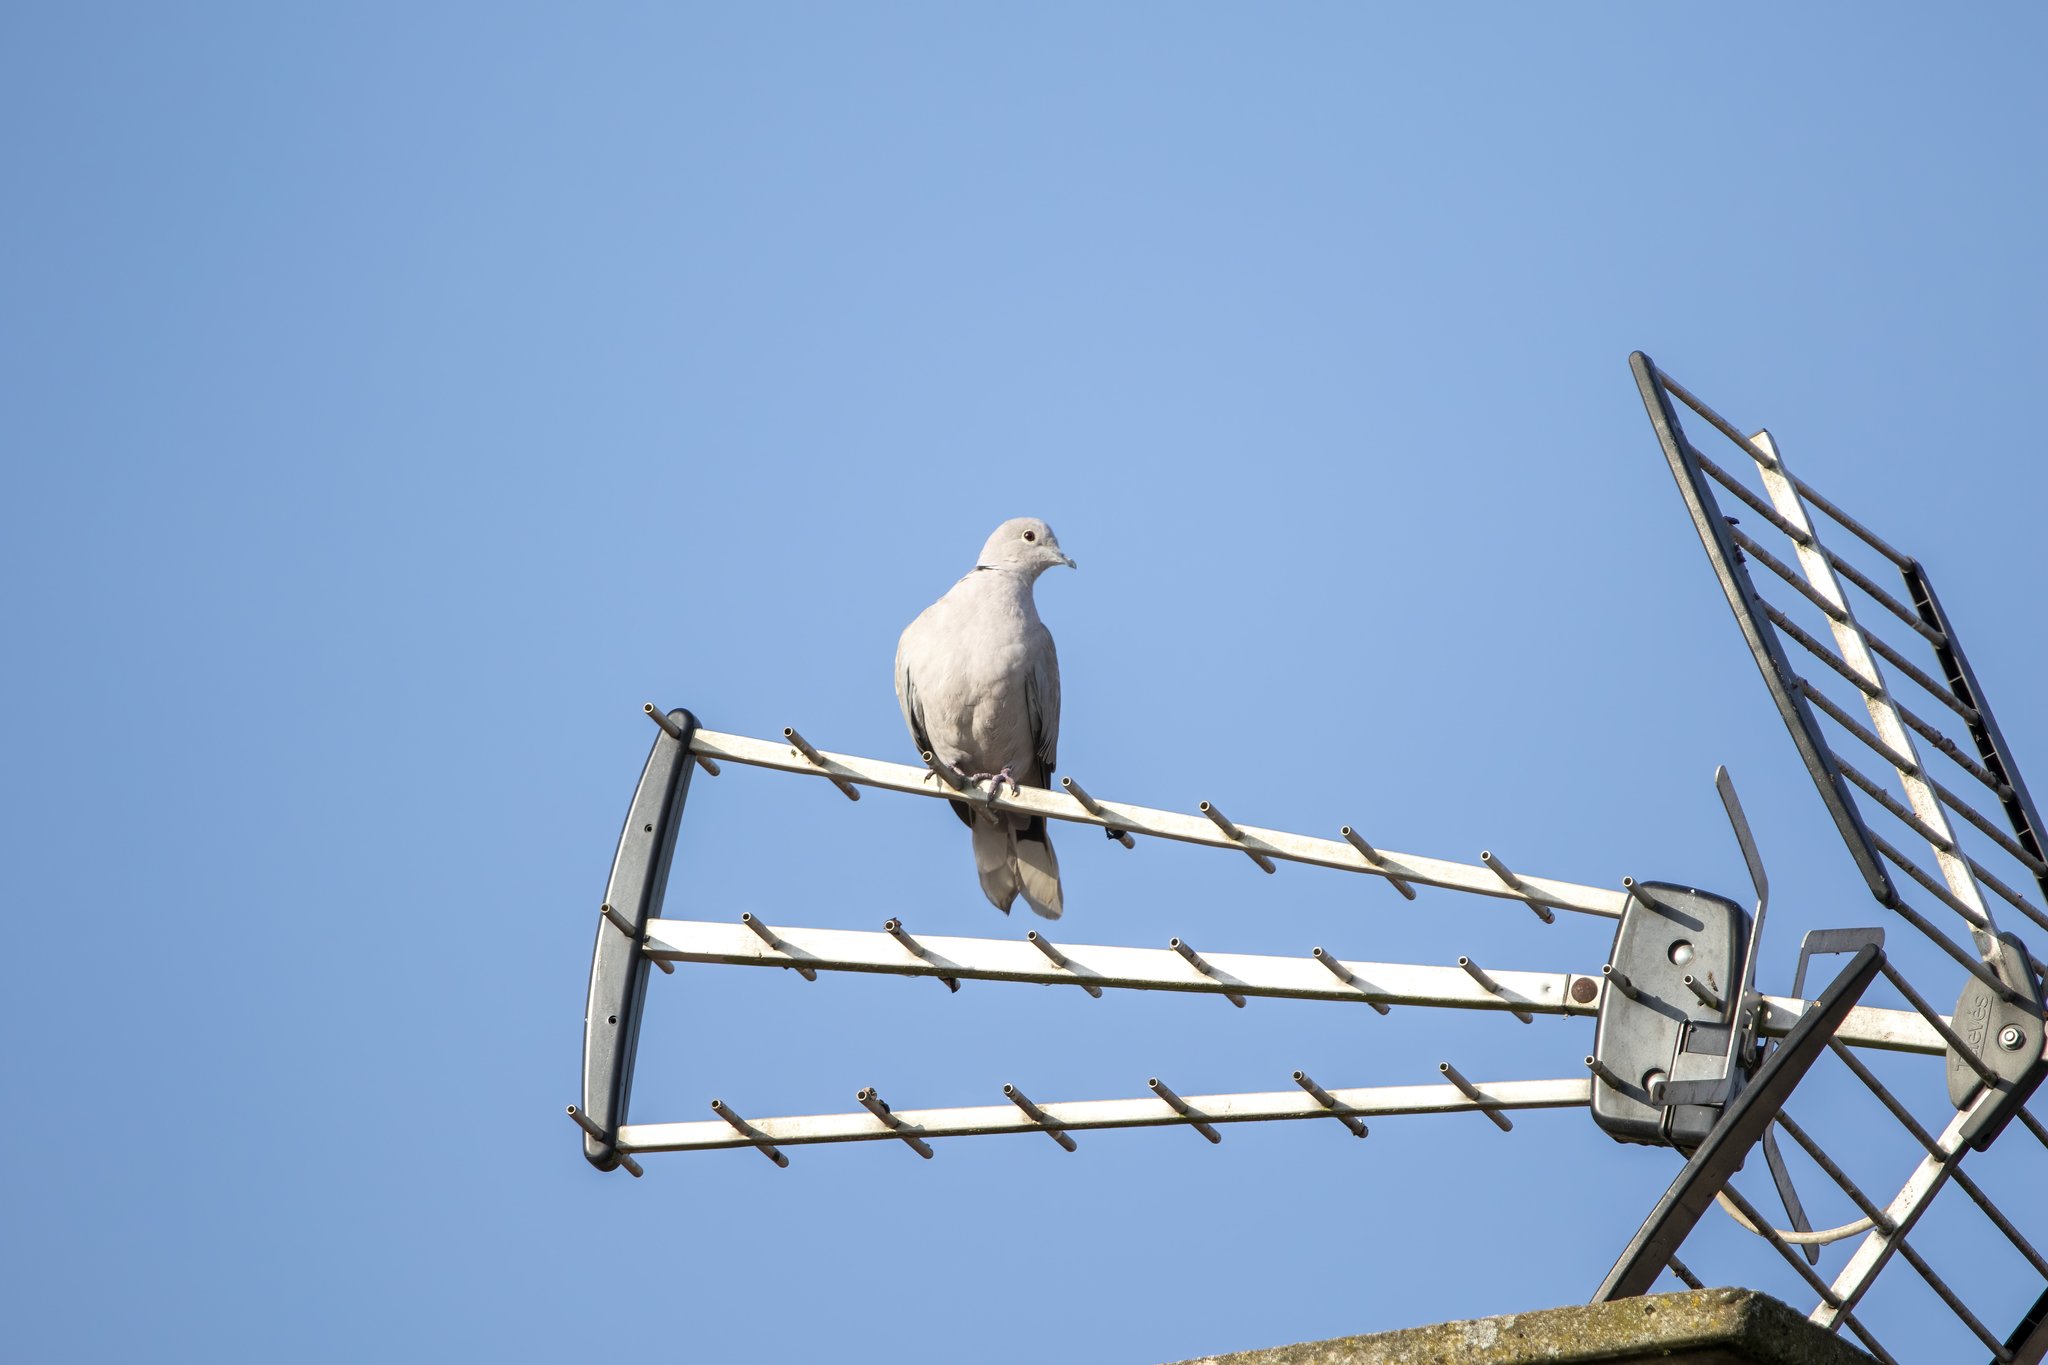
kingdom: Animalia
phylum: Chordata
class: Aves
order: Columbiformes
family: Columbidae
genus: Streptopelia
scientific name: Streptopelia decaocto
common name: Eurasian collared dove
